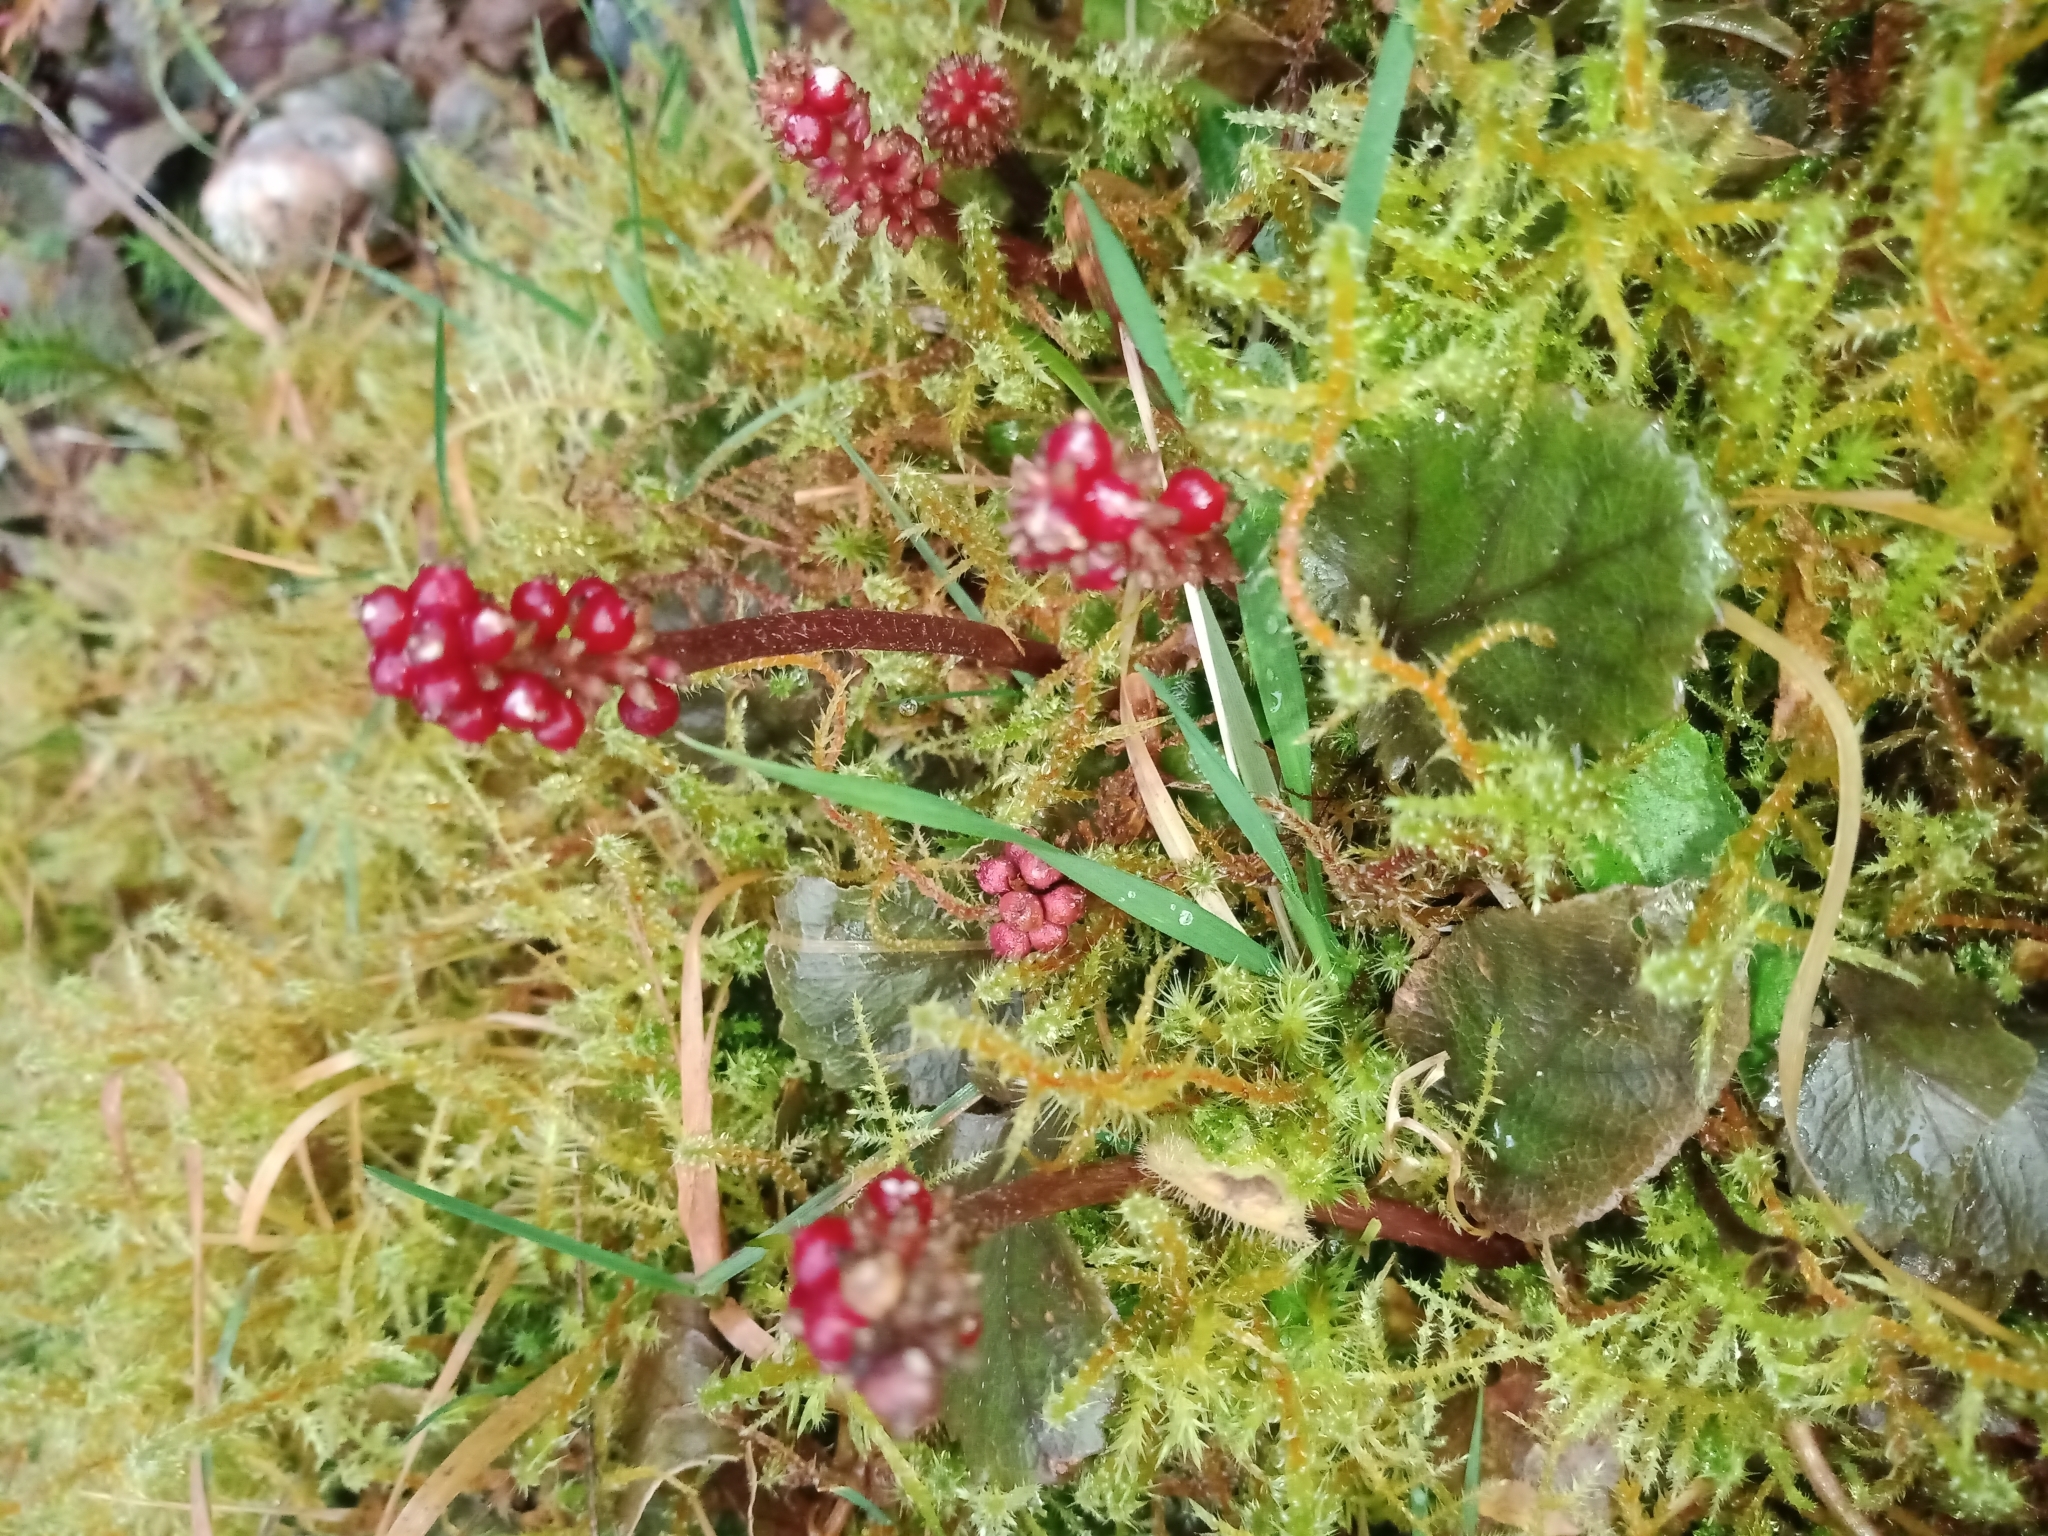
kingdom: Plantae
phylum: Tracheophyta
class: Magnoliopsida
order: Gunnerales
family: Gunneraceae
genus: Gunnera
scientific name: Gunnera prorepens
